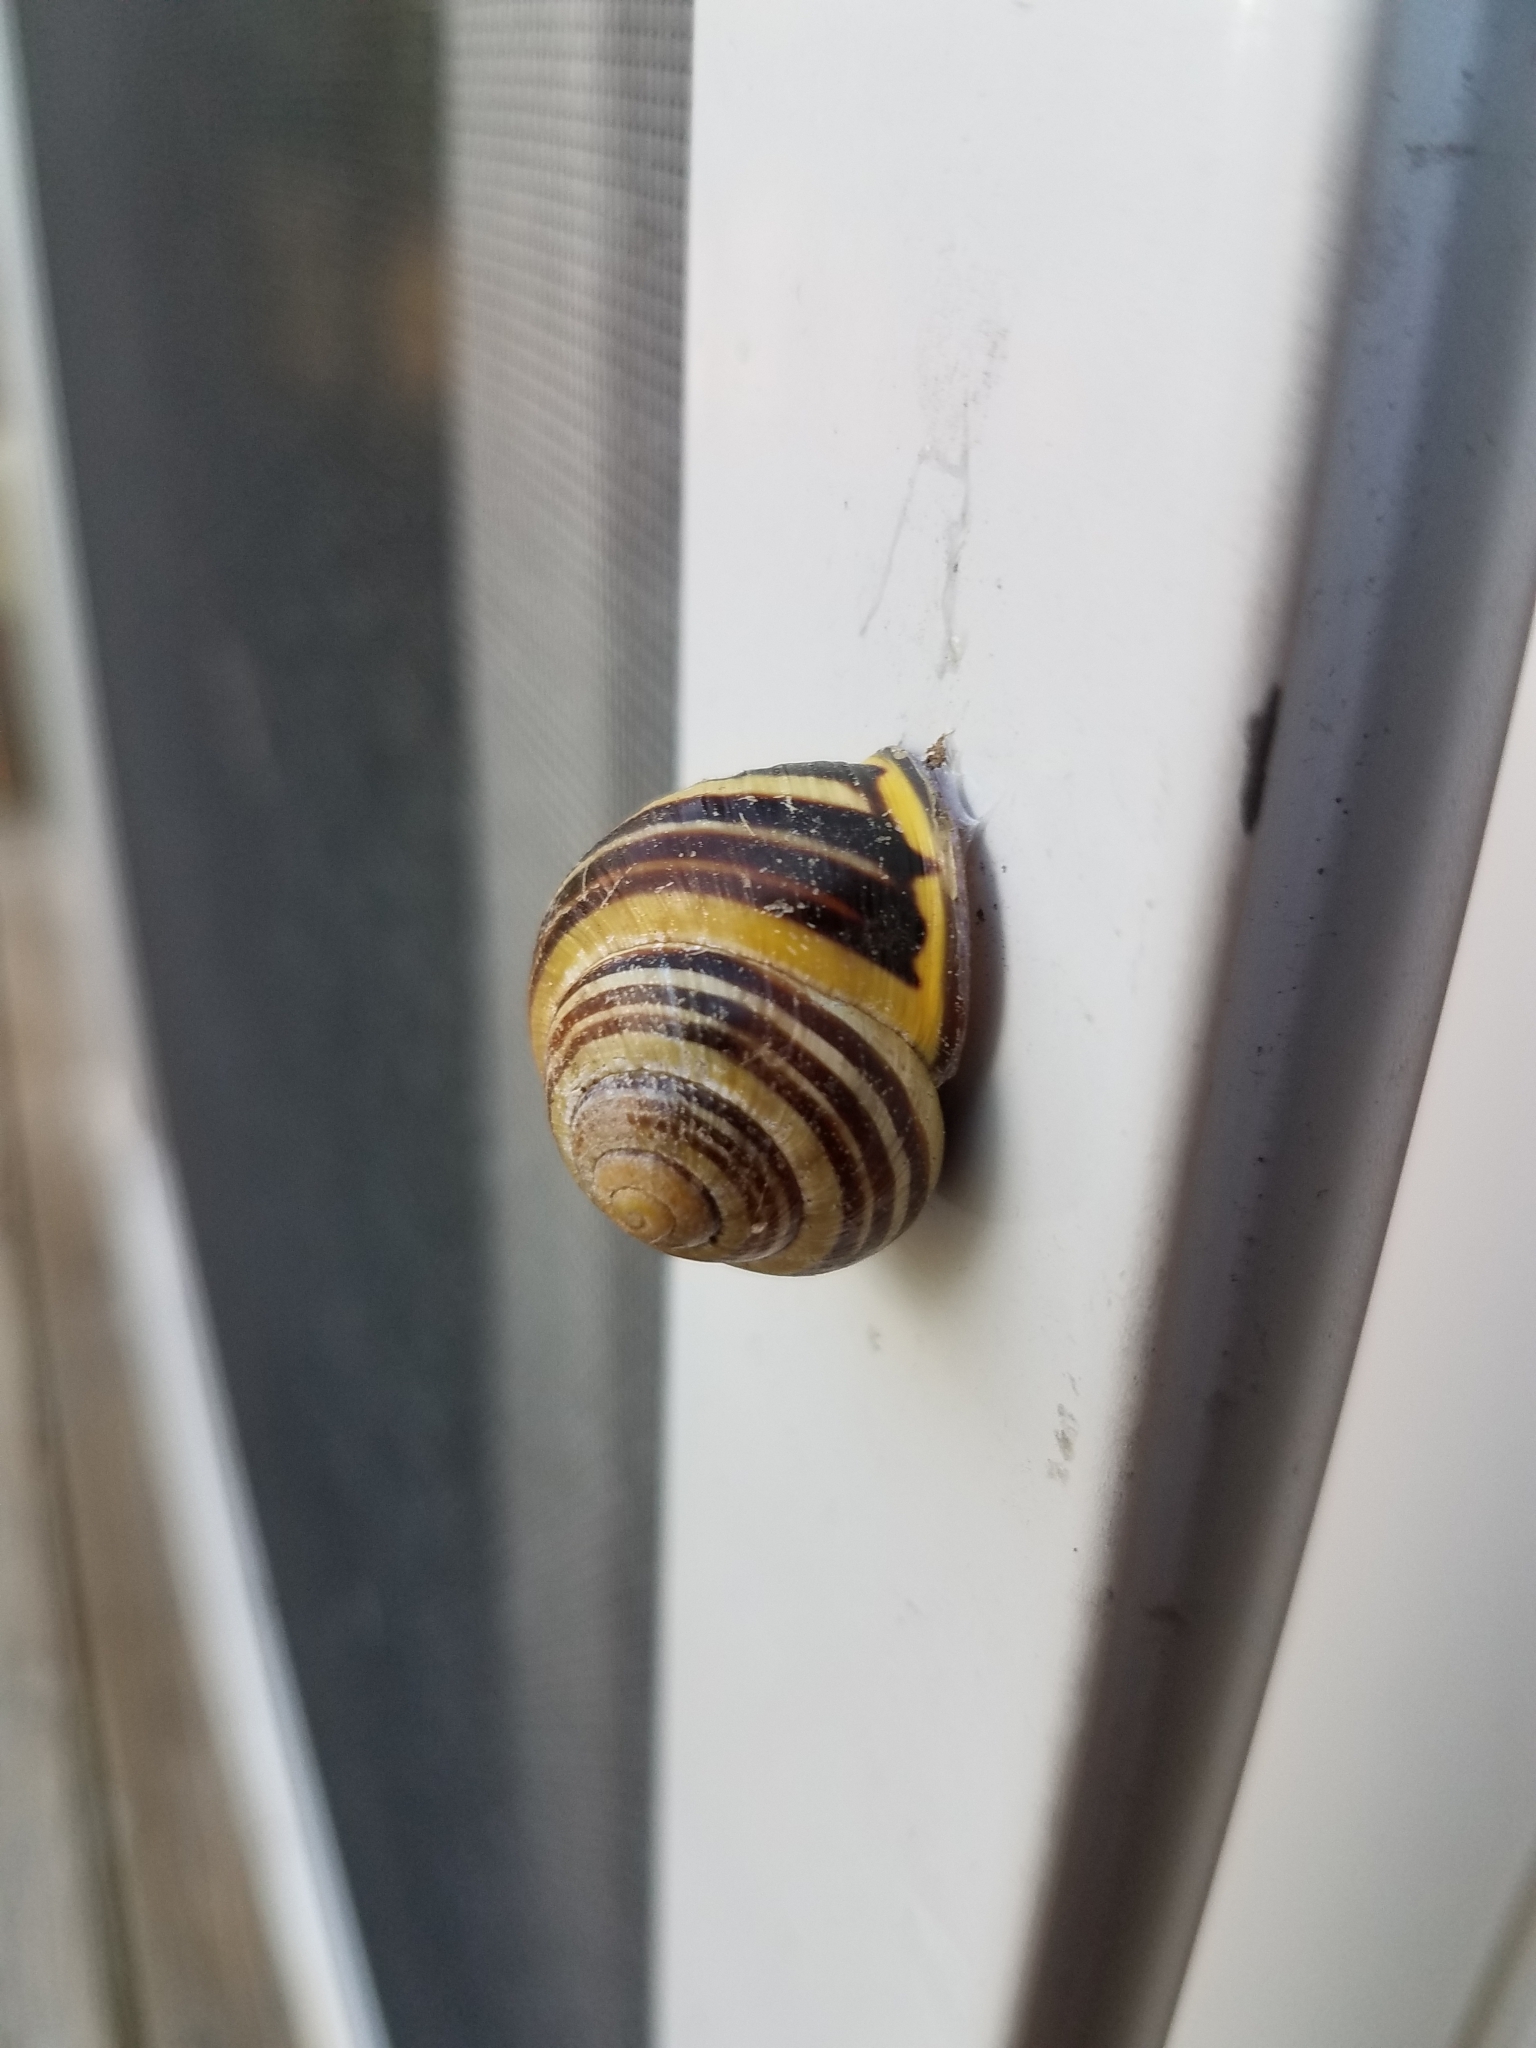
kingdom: Animalia
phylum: Mollusca
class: Gastropoda
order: Stylommatophora
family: Helicidae
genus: Cepaea
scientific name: Cepaea nemoralis
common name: Grovesnail
